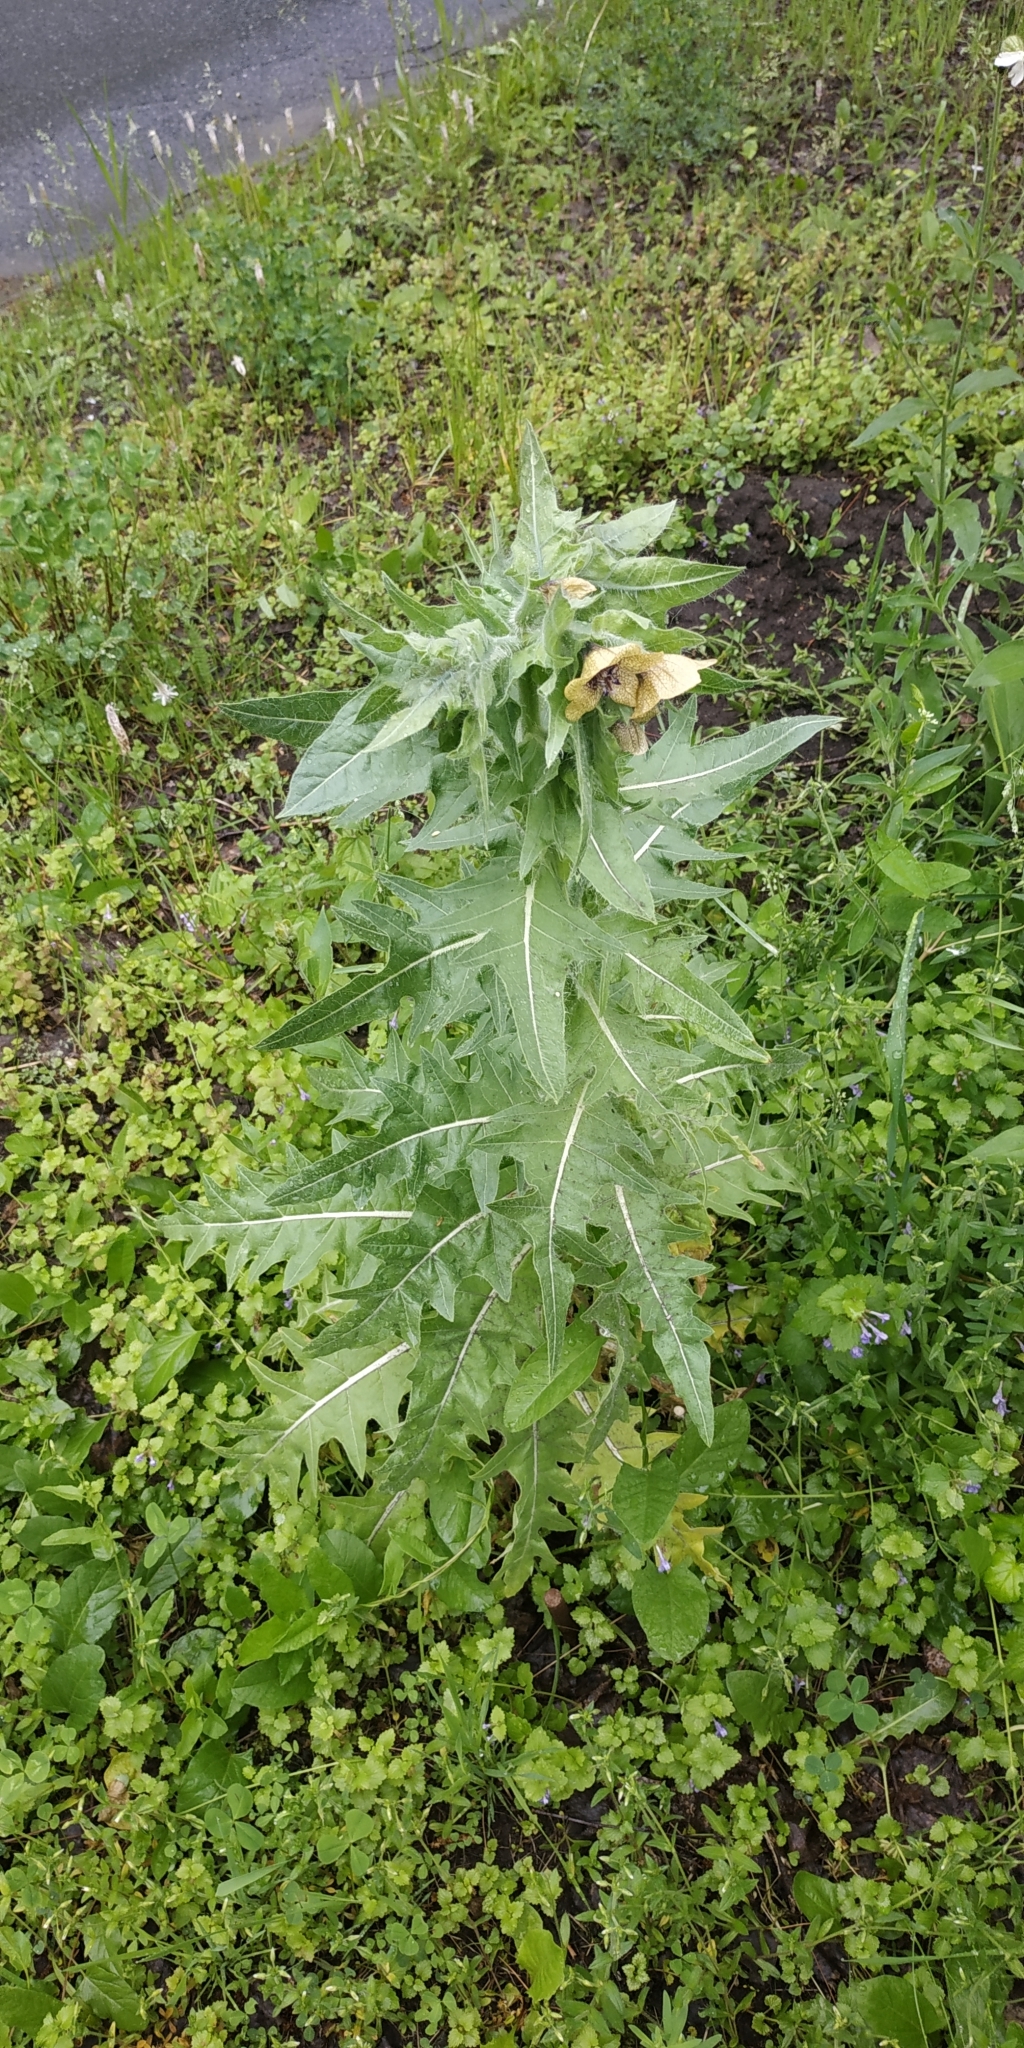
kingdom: Plantae
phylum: Tracheophyta
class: Magnoliopsida
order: Solanales
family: Solanaceae
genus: Hyoscyamus
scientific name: Hyoscyamus niger
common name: Henbane
